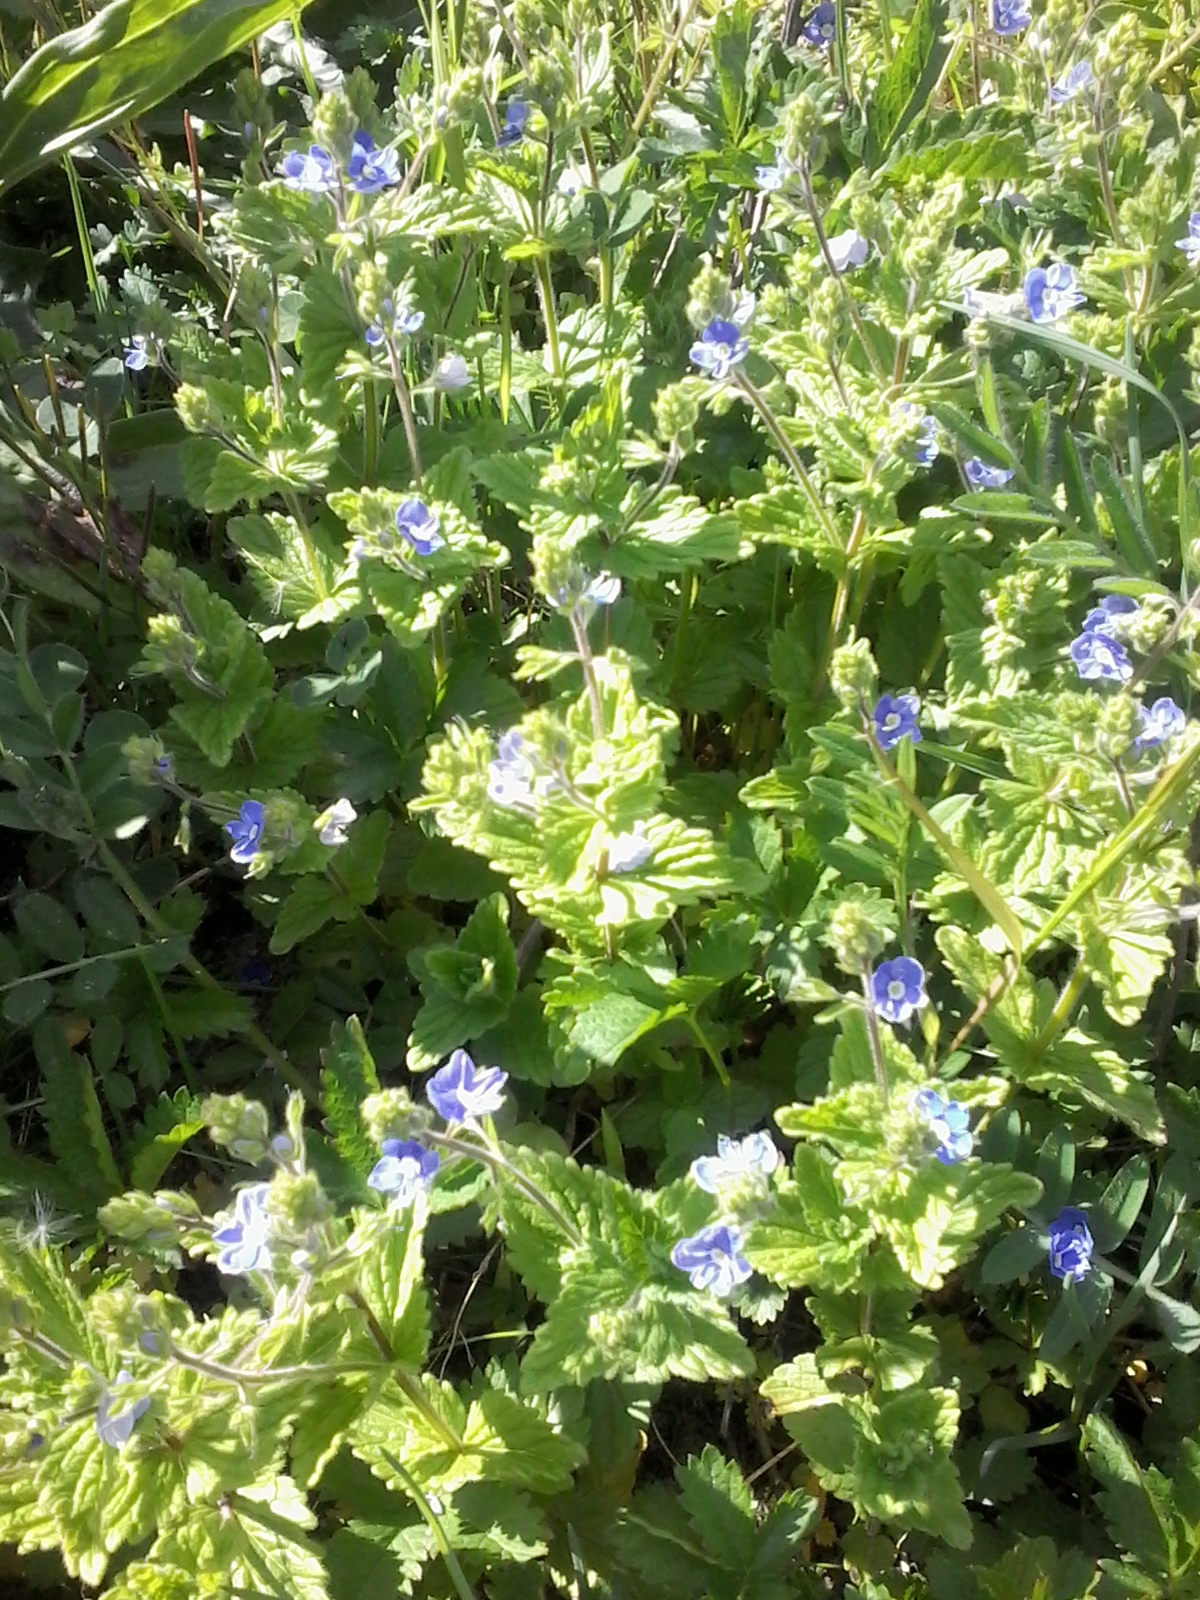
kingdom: Plantae
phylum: Tracheophyta
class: Magnoliopsida
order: Lamiales
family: Plantaginaceae
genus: Veronica
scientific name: Veronica chamaedrys
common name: Germander speedwell
